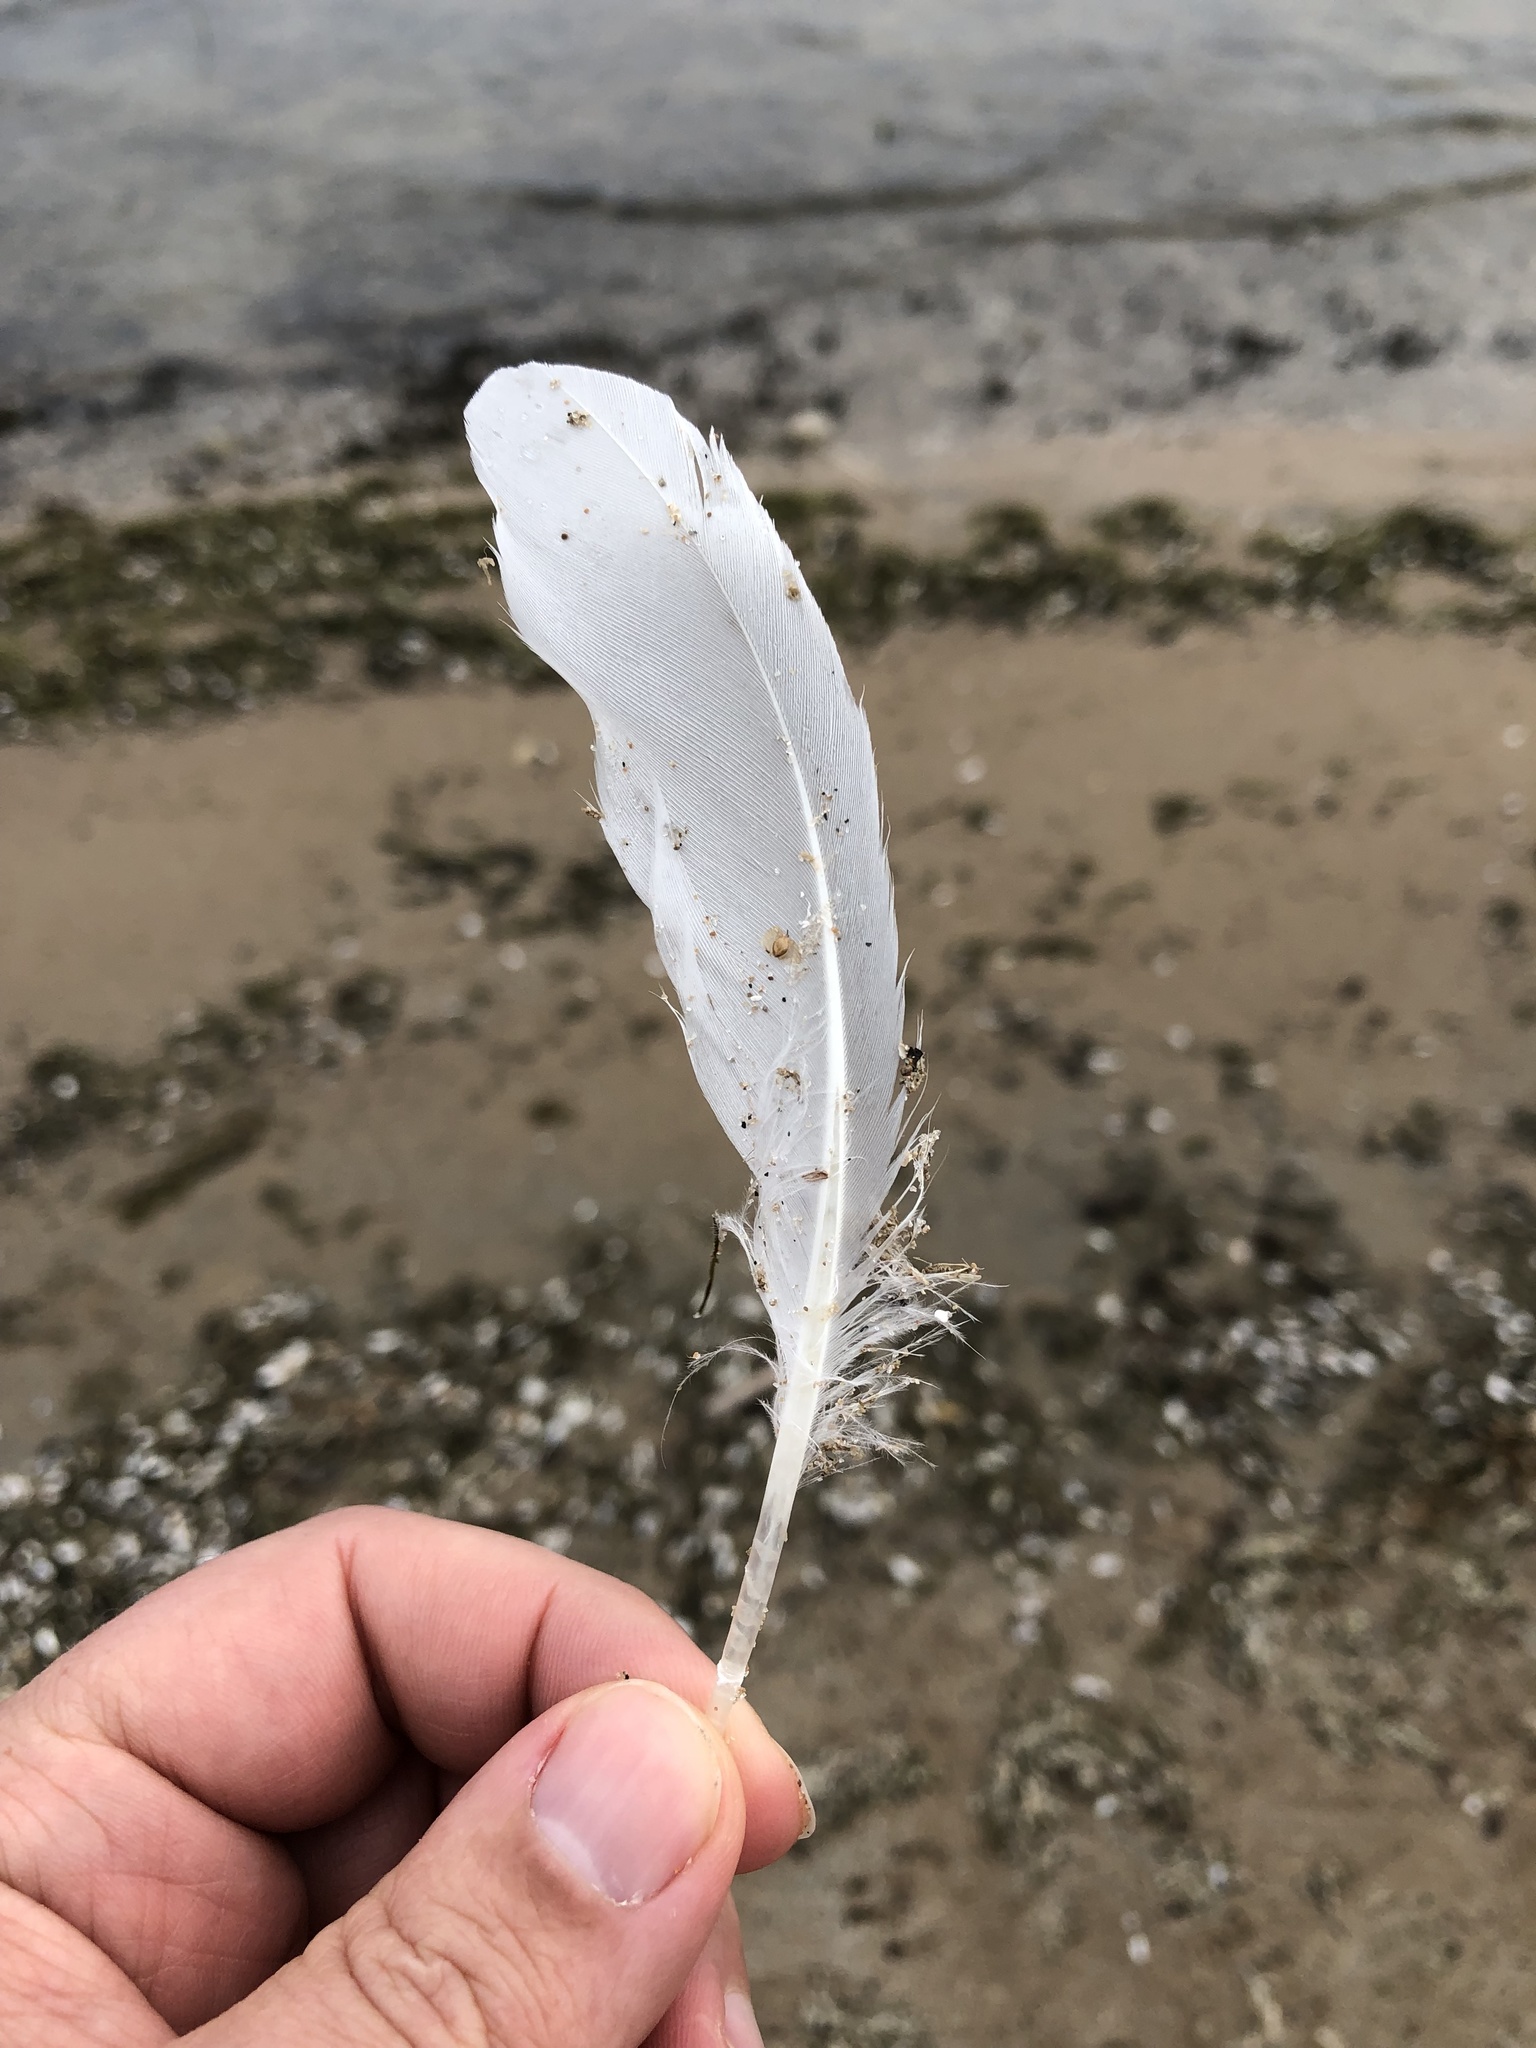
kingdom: Animalia
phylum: Chordata
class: Aves
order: Charadriiformes
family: Laridae
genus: Larus
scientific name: Larus delawarensis
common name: Ring-billed gull
